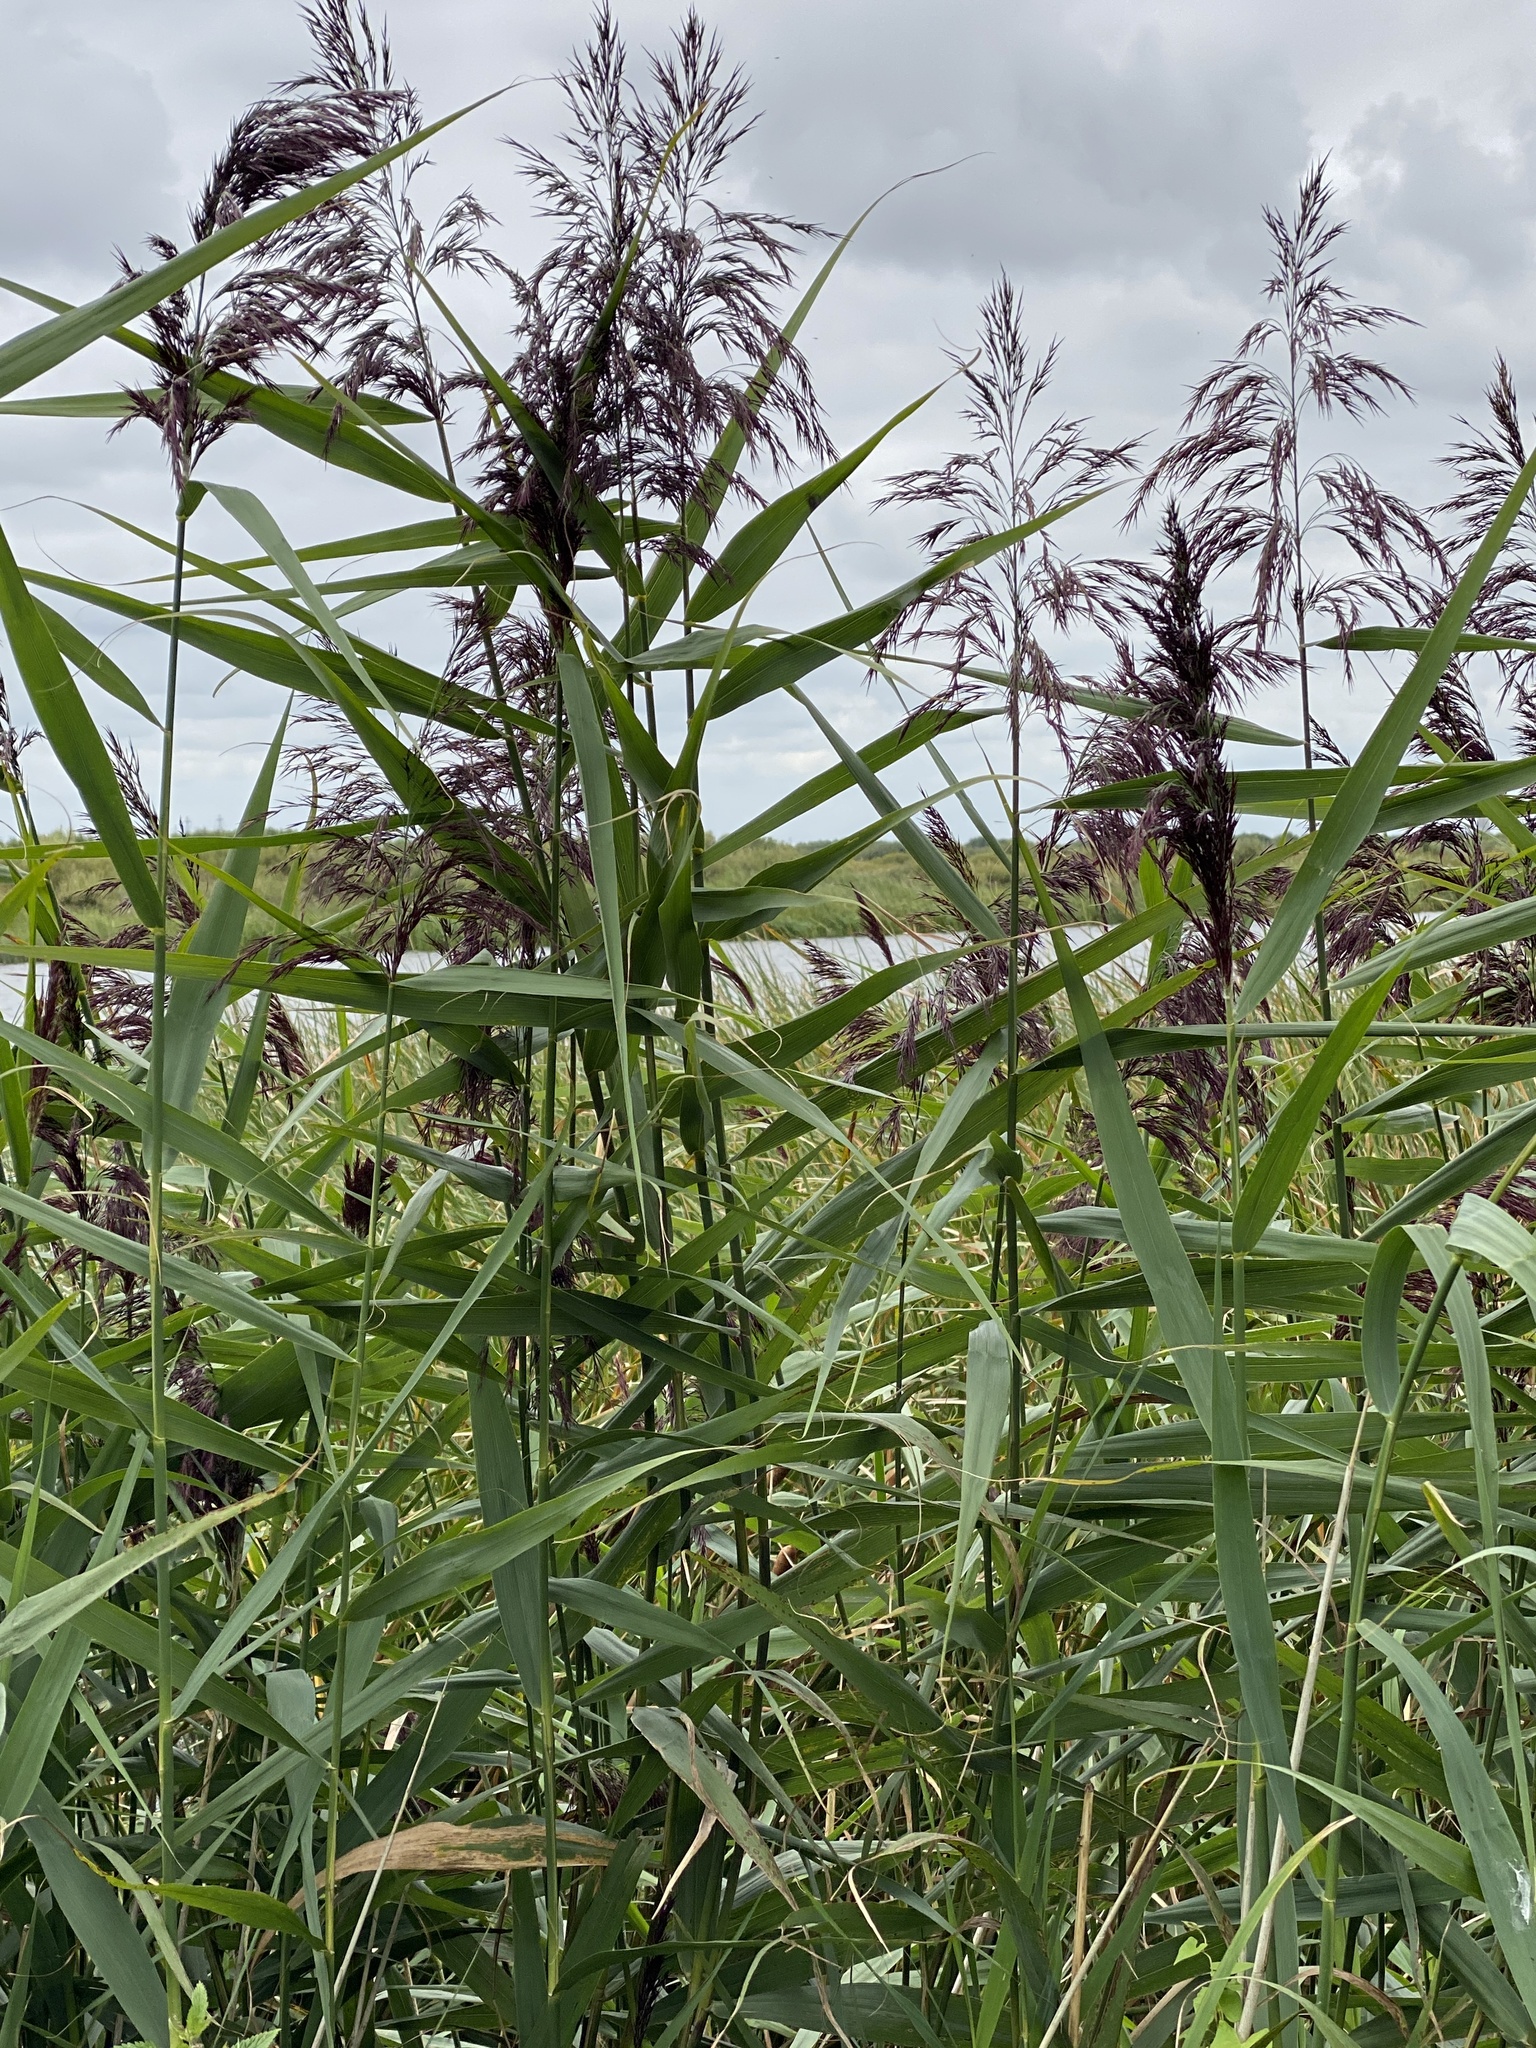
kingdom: Plantae
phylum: Tracheophyta
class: Liliopsida
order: Poales
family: Poaceae
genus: Phragmites
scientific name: Phragmites australis
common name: Common reed
